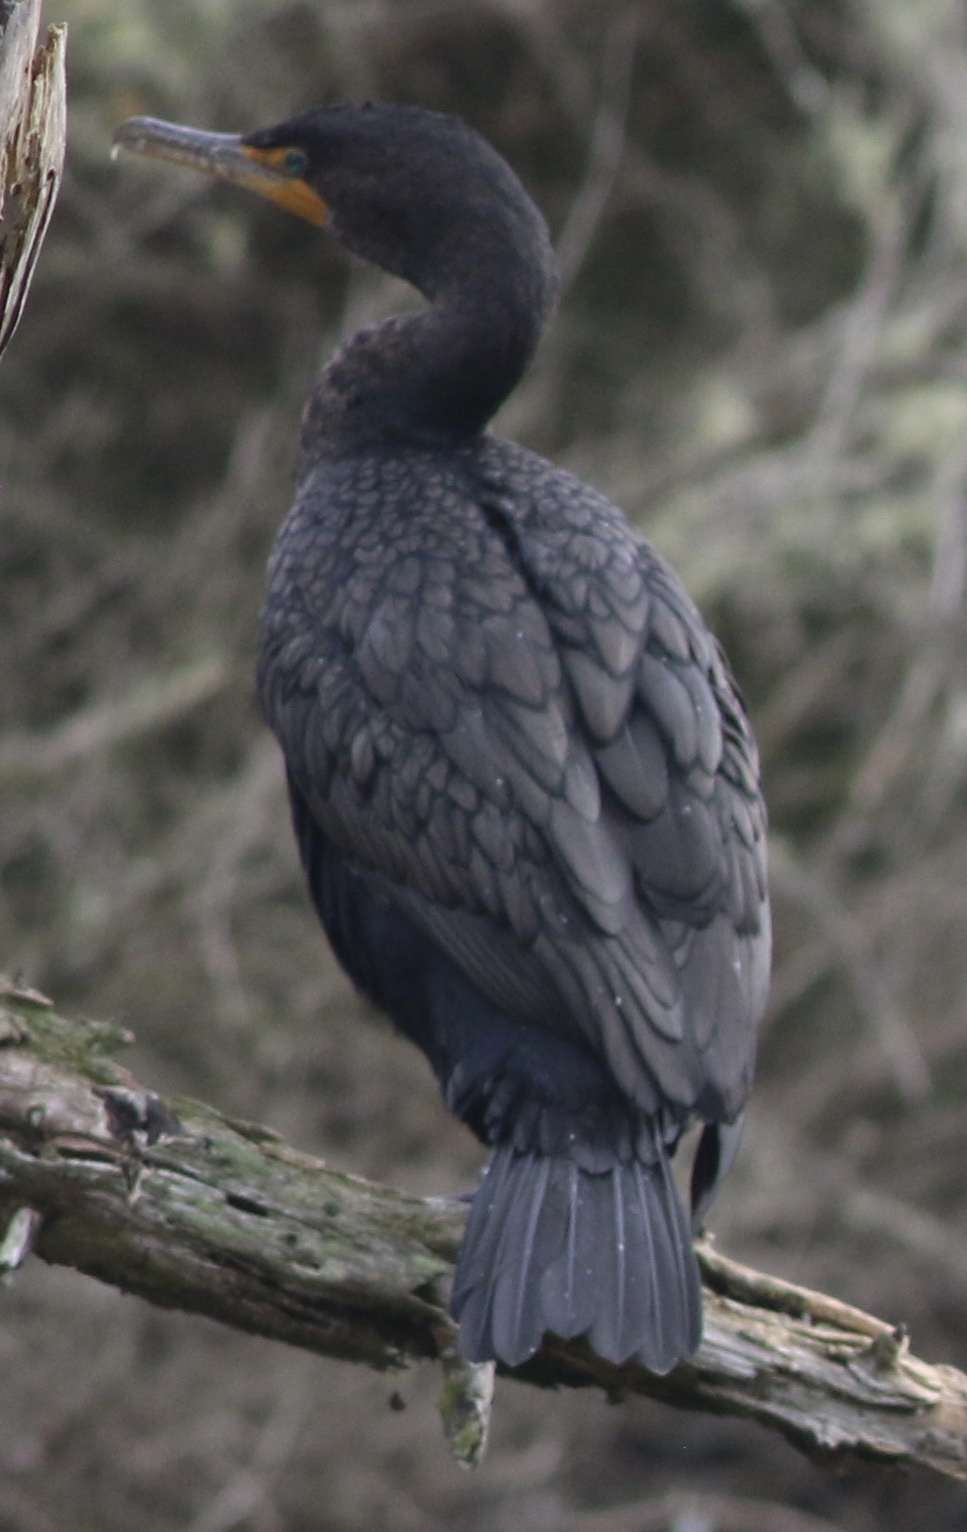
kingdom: Animalia
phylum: Chordata
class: Aves
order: Suliformes
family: Phalacrocoracidae
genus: Phalacrocorax
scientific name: Phalacrocorax auritus
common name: Double-crested cormorant
